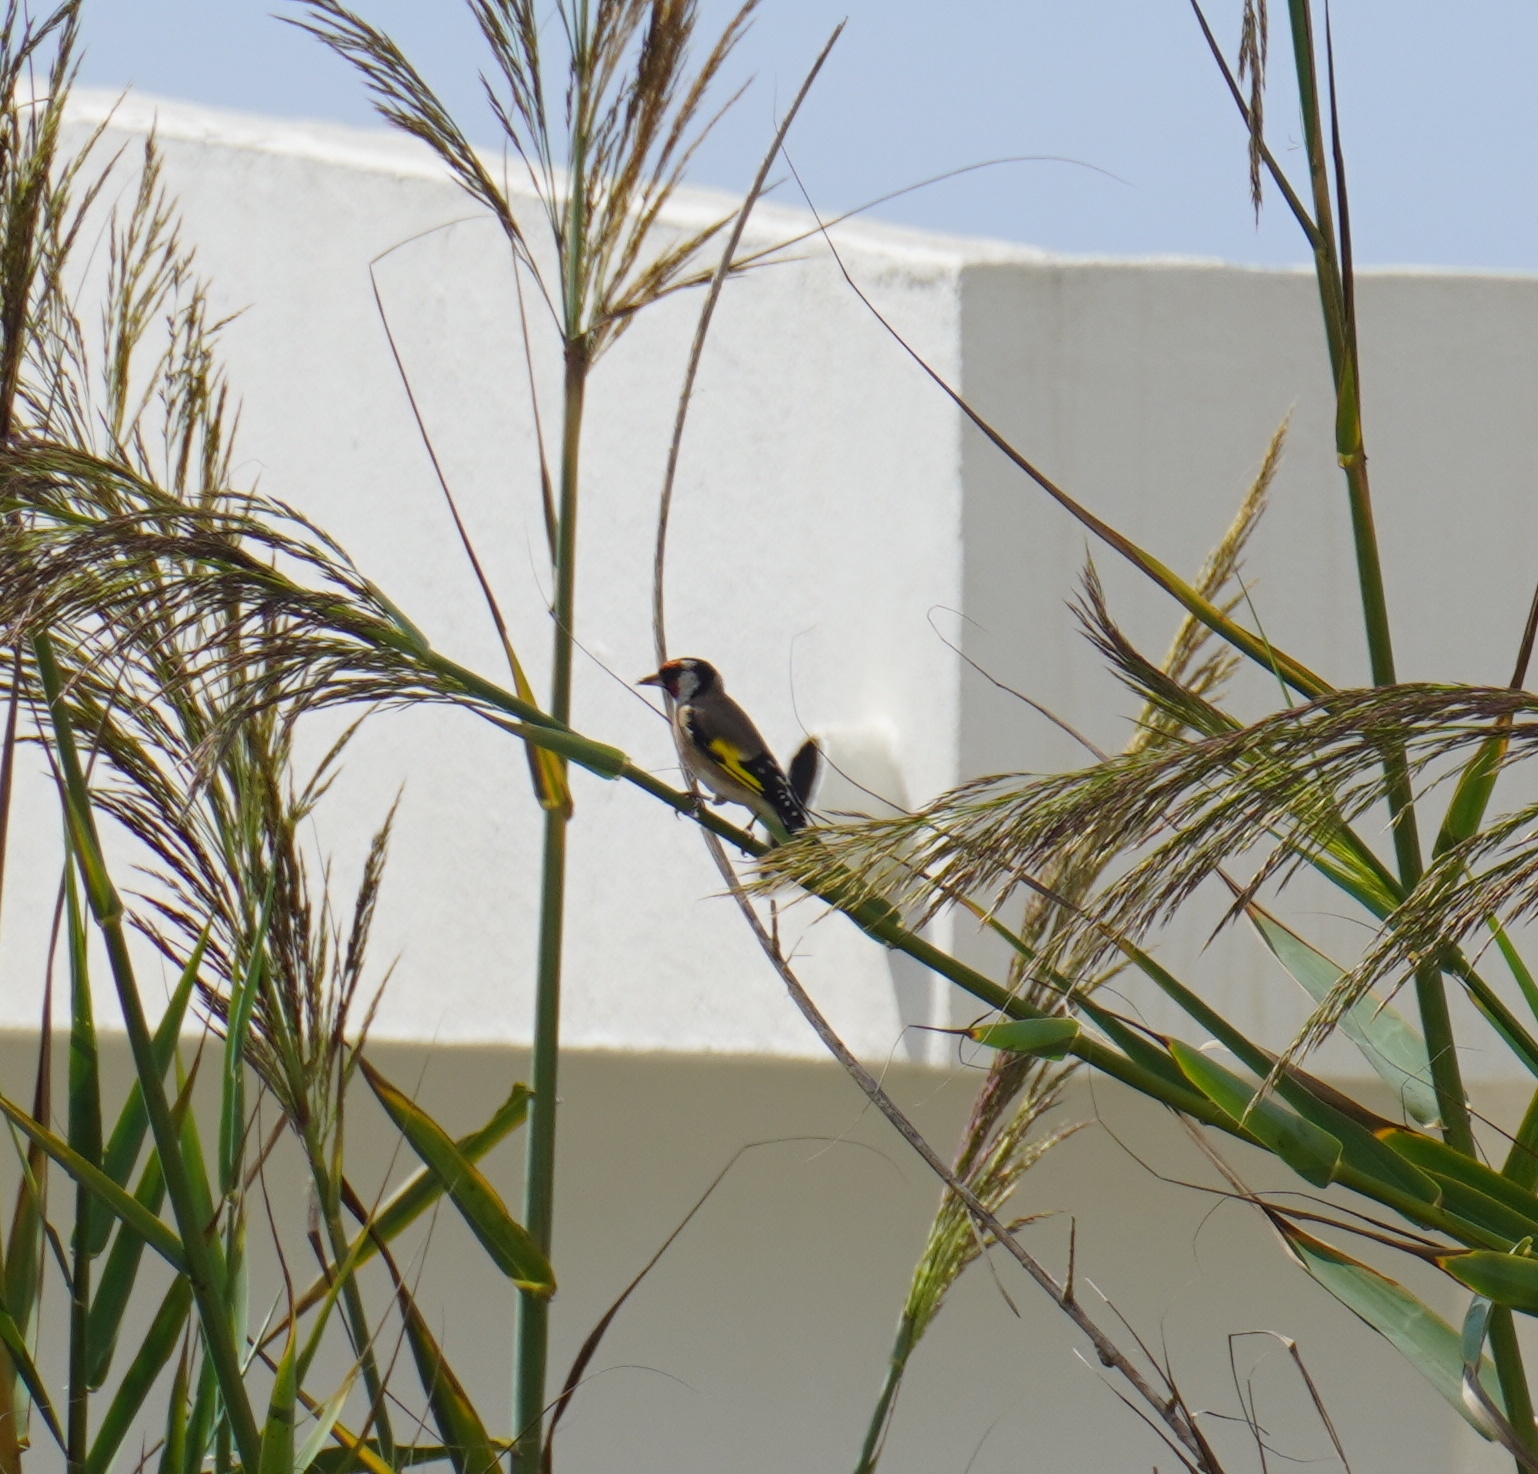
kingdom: Animalia
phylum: Chordata
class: Aves
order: Passeriformes
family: Fringillidae
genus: Carduelis
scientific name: Carduelis carduelis
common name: European goldfinch
